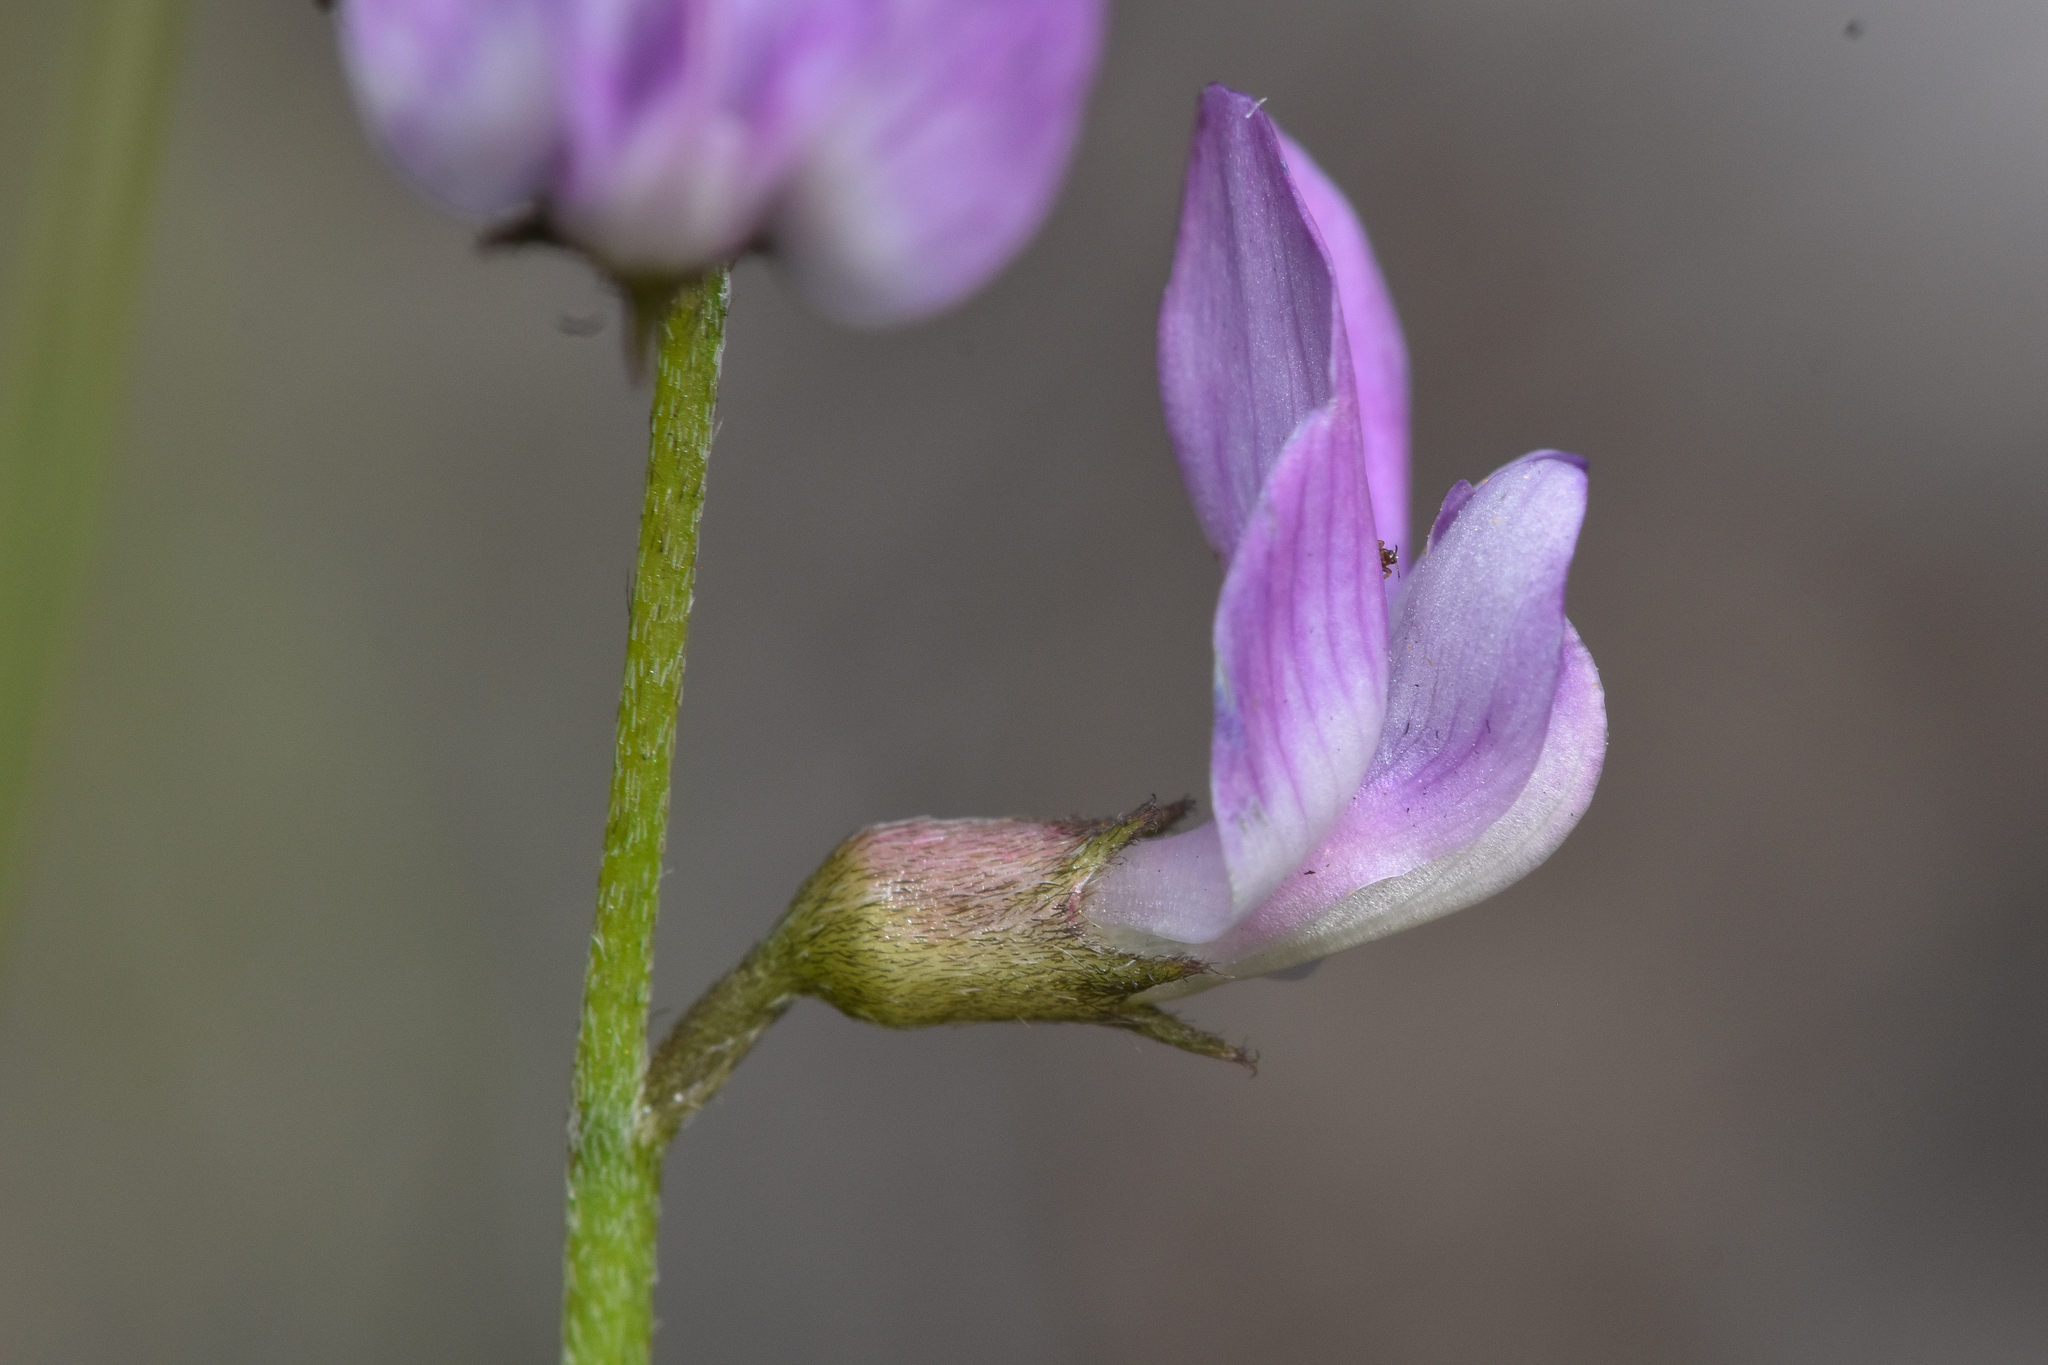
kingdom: Plantae
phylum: Tracheophyta
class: Magnoliopsida
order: Fabales
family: Fabaceae
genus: Astragalus
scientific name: Astragalus miser
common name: Timber milkvetch
